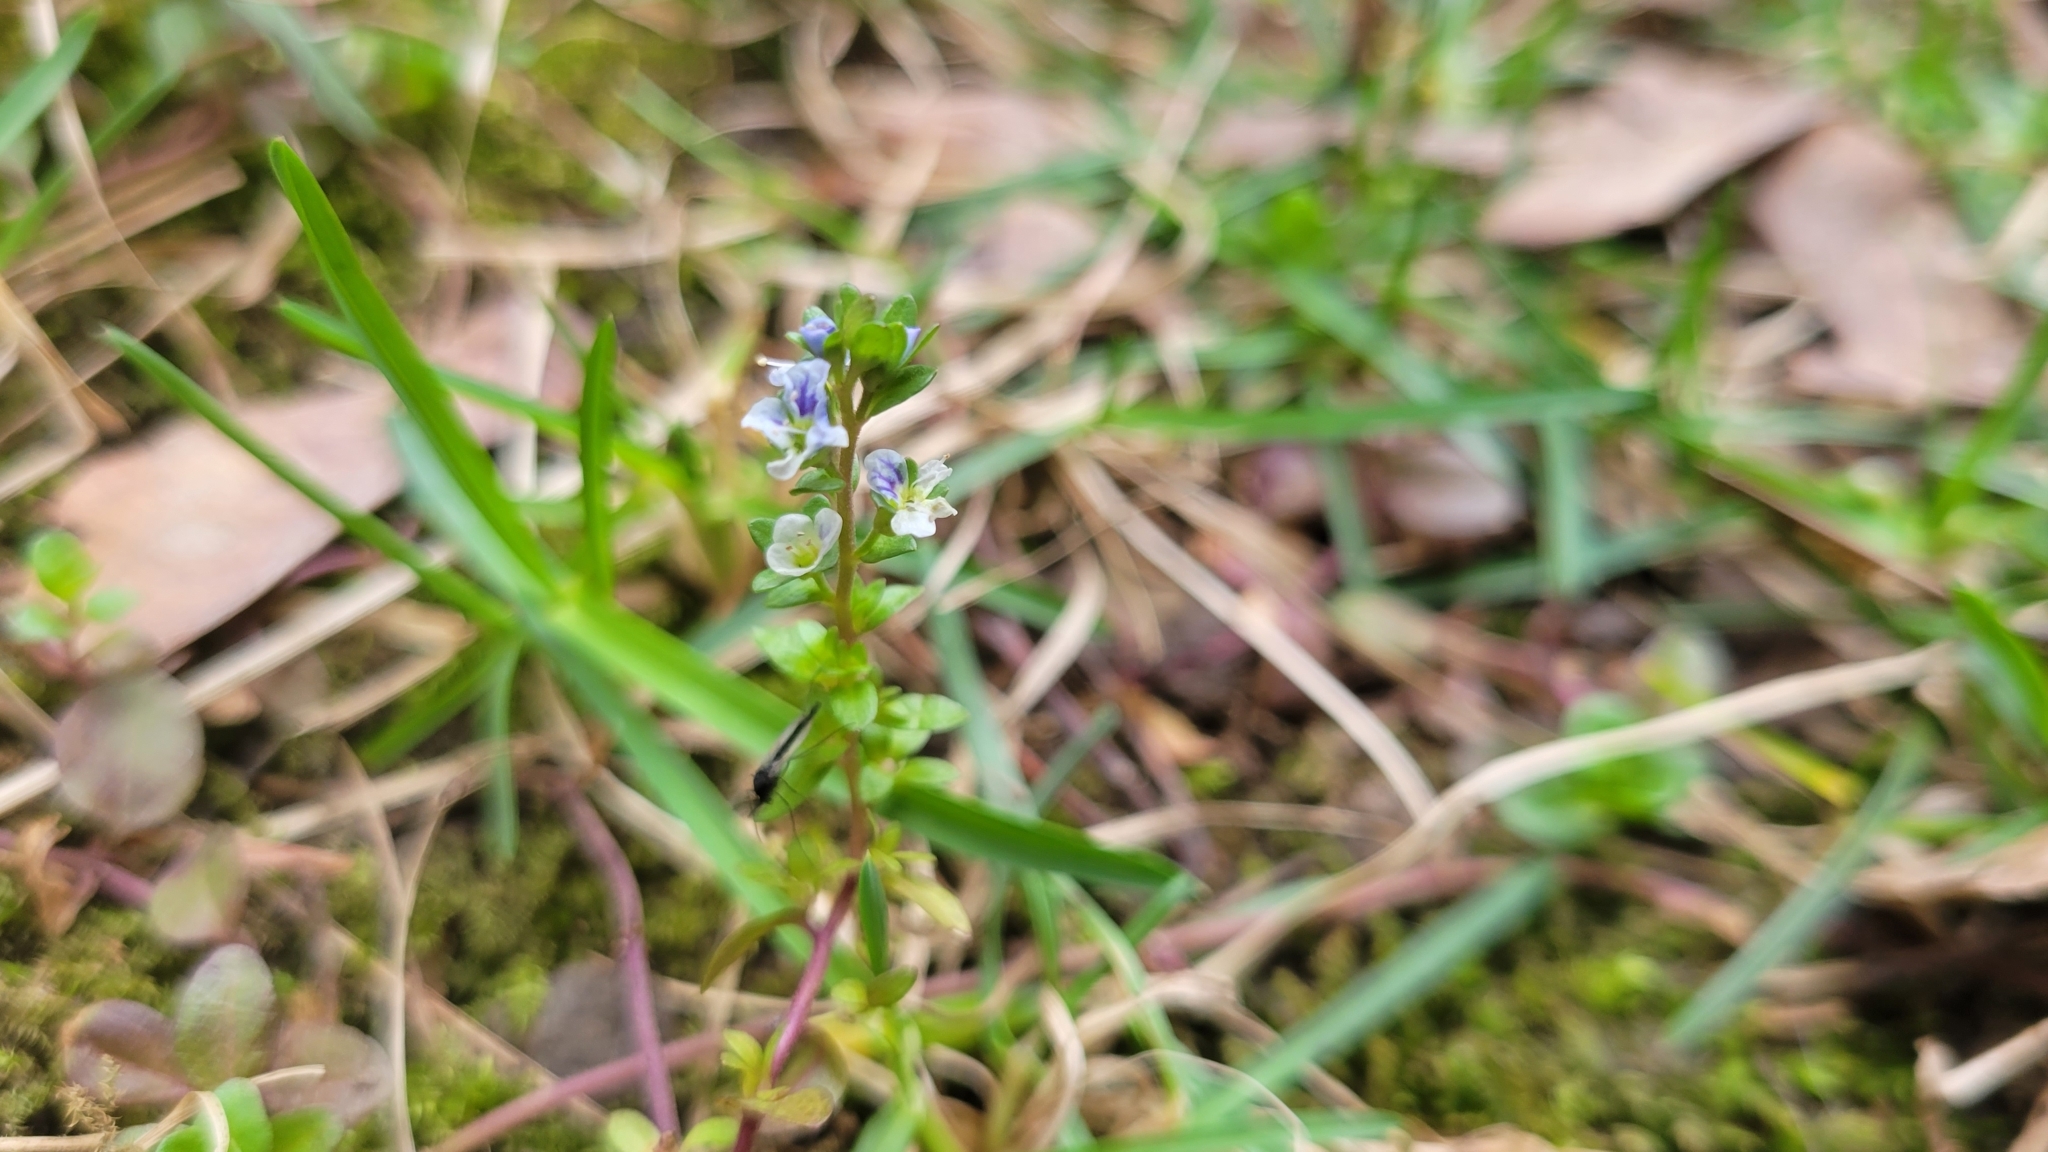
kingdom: Plantae
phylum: Tracheophyta
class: Magnoliopsida
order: Lamiales
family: Plantaginaceae
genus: Veronica
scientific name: Veronica serpyllifolia
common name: Thyme-leaved speedwell
